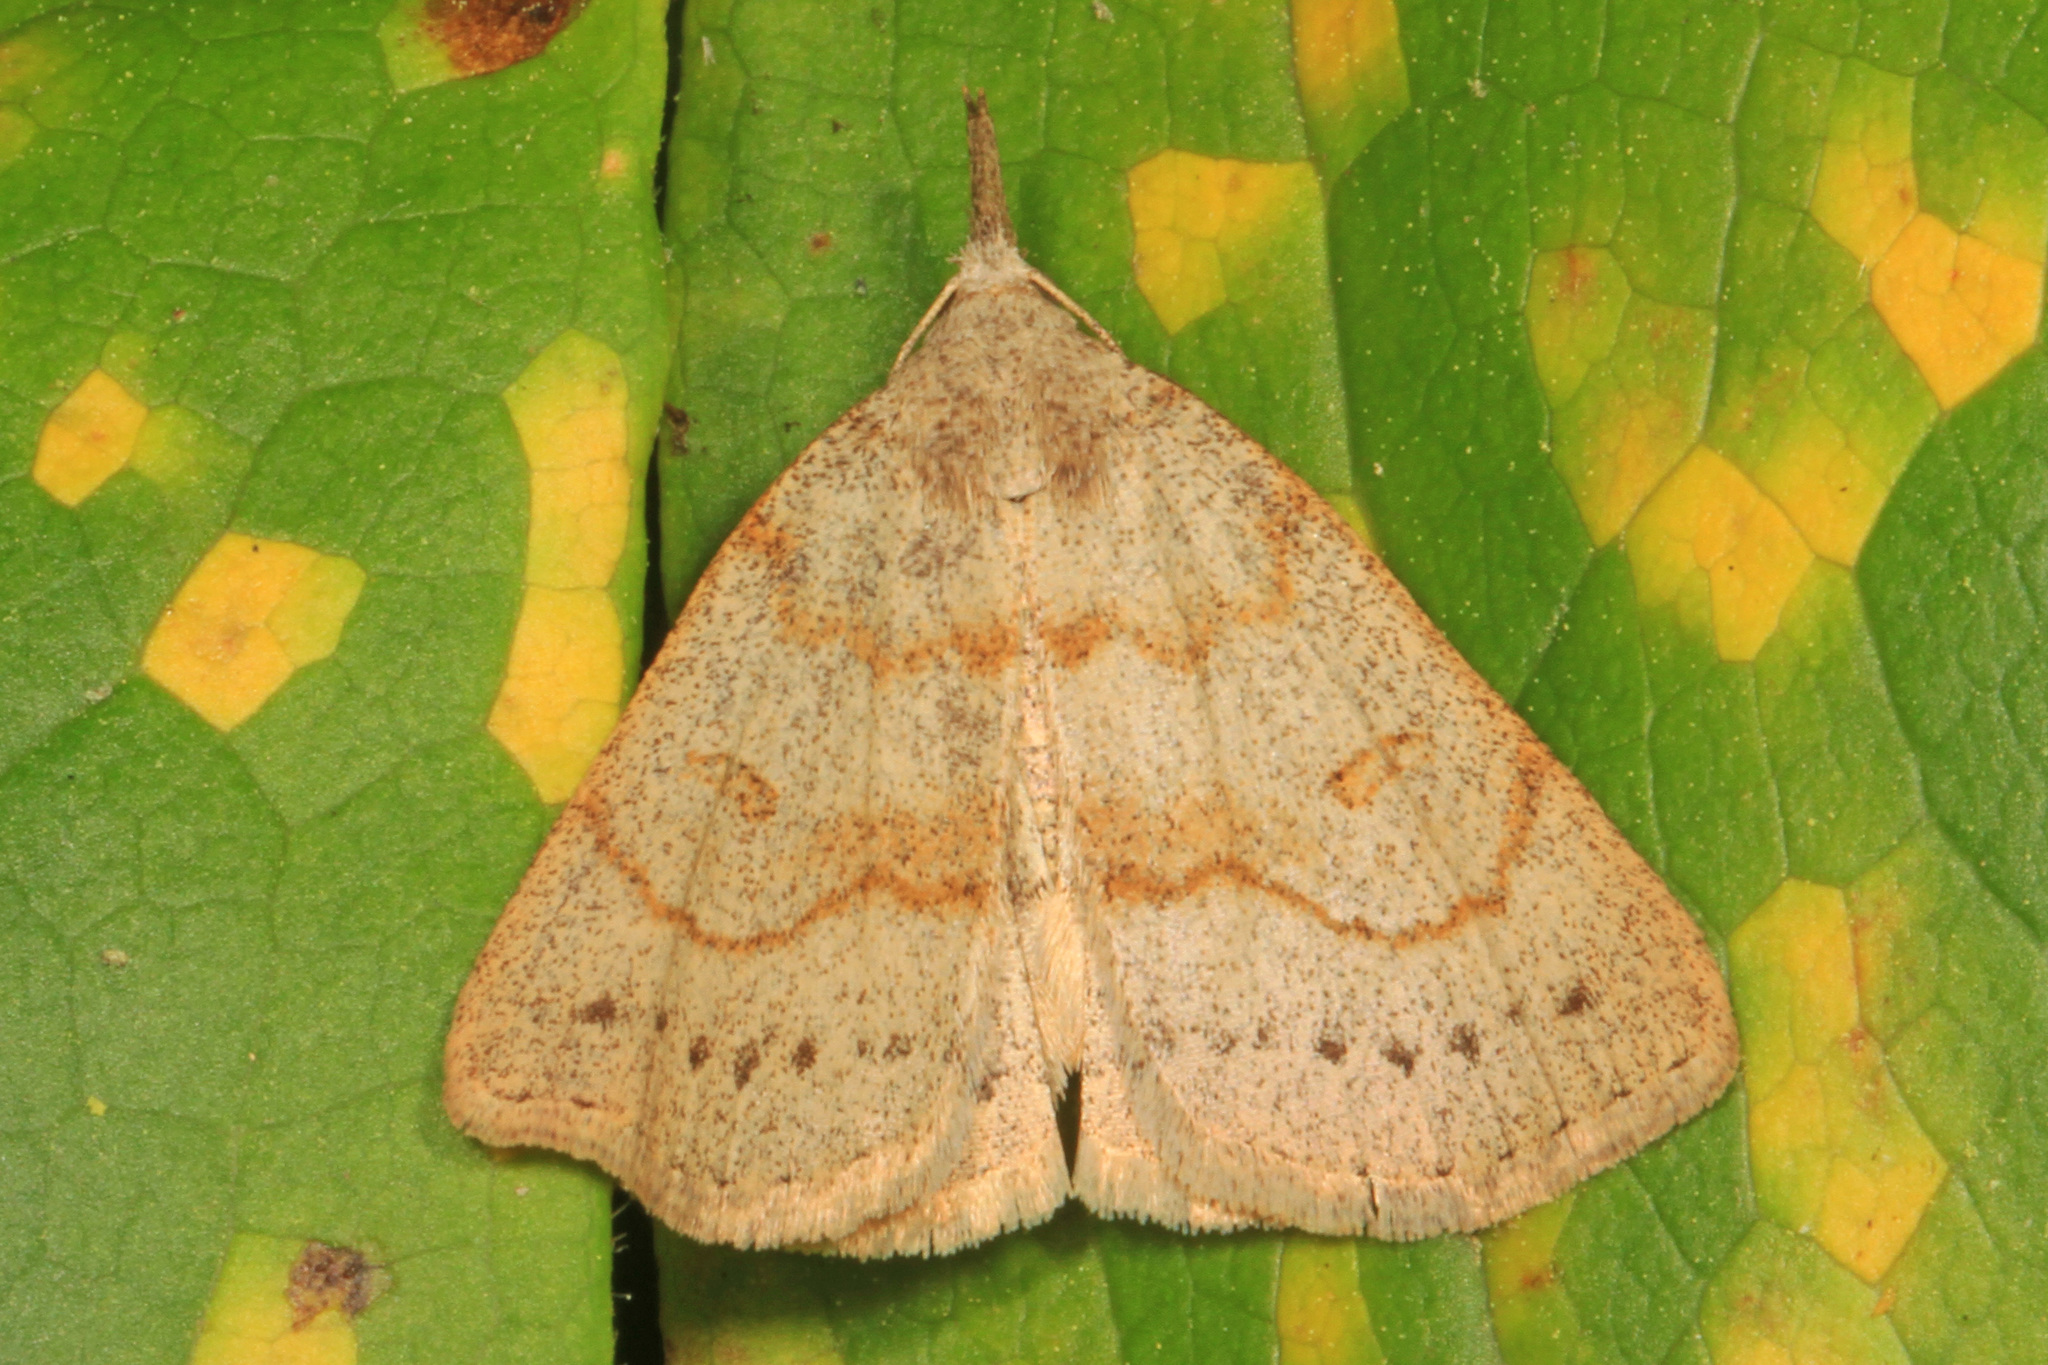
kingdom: Animalia
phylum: Arthropoda
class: Insecta
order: Lepidoptera
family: Erebidae
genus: Macrochilo
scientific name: Macrochilo morbidalis
